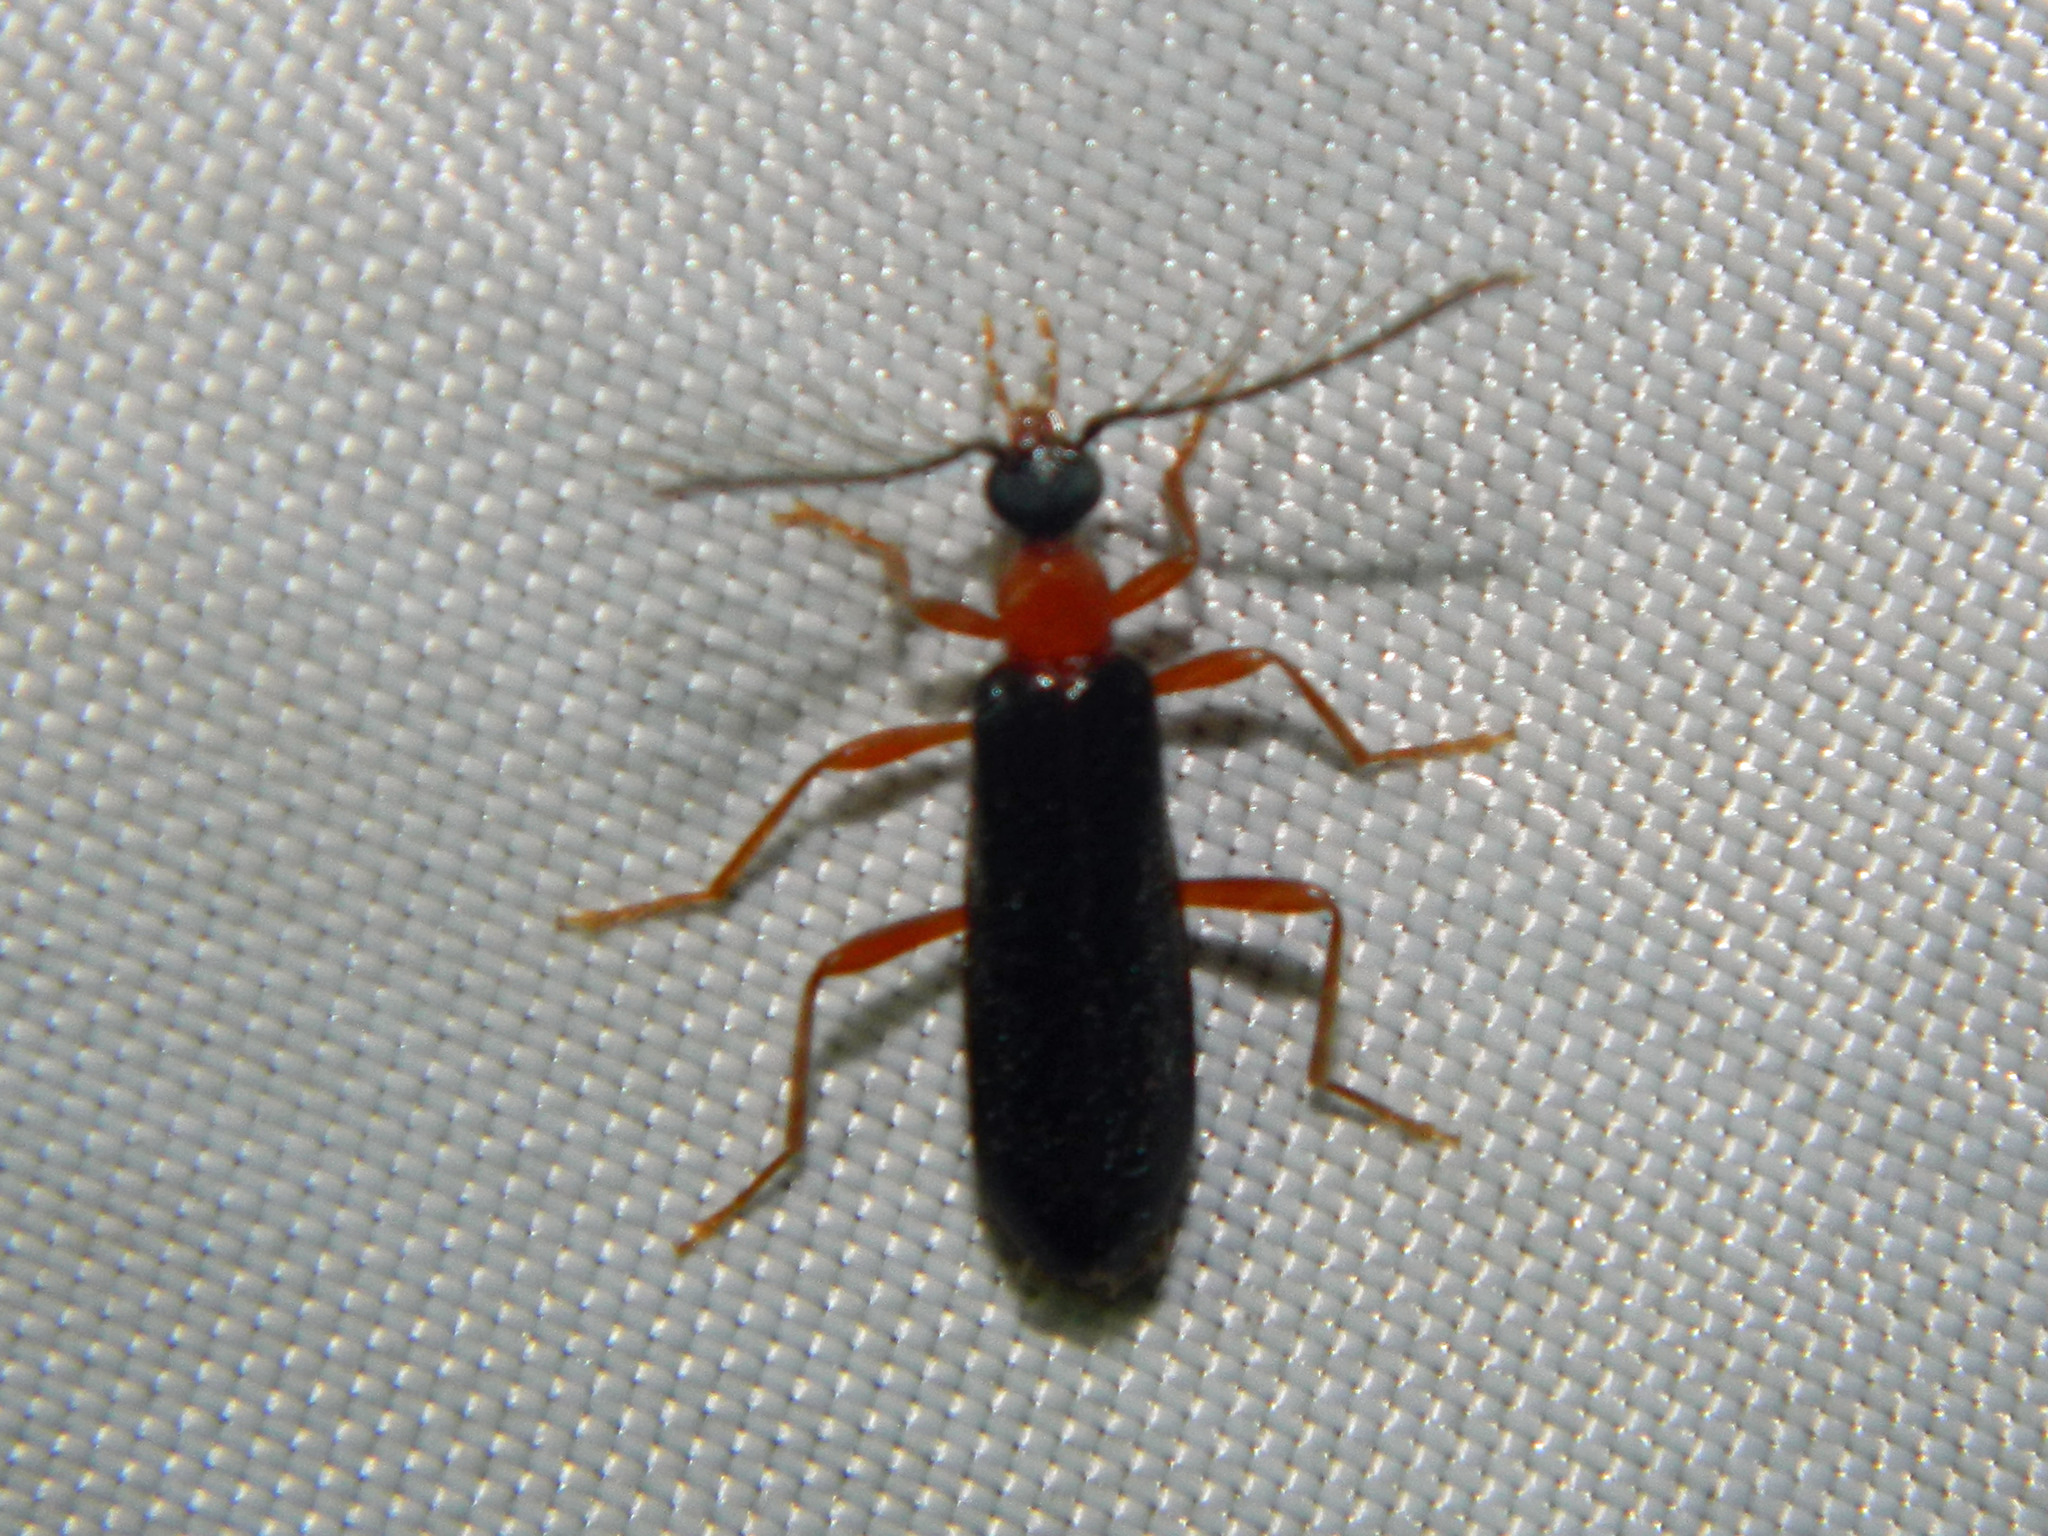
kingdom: Animalia
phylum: Arthropoda
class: Insecta
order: Coleoptera
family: Pyrochroidae
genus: Dendroides
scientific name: Dendroides canadensis
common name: Canada fire-colored beetle
